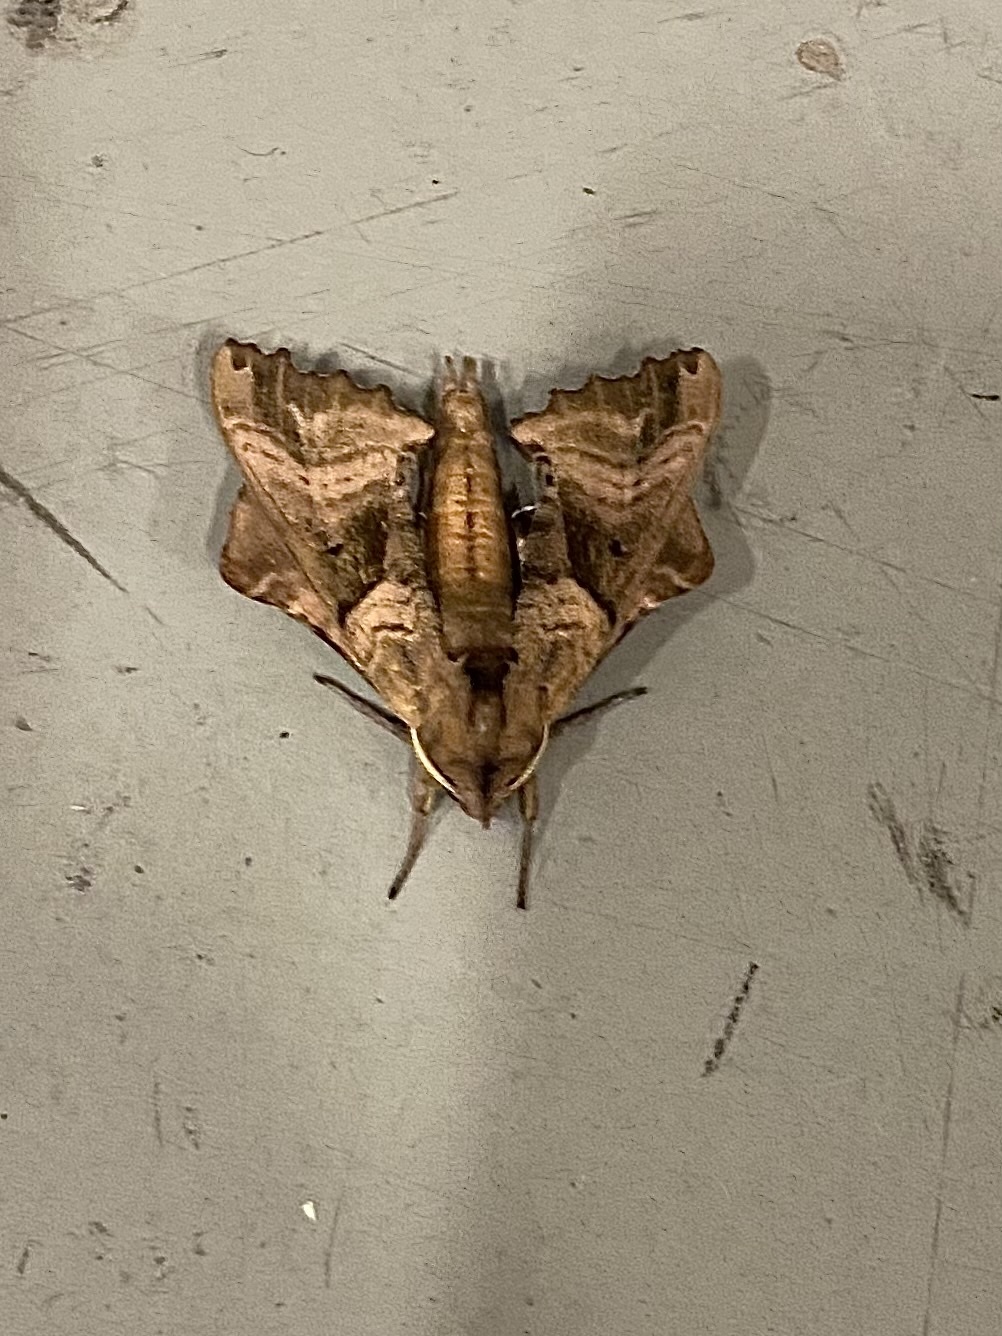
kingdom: Animalia
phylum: Arthropoda
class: Insecta
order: Lepidoptera
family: Sphingidae
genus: Paonias
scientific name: Paonias excaecata
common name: Blind-eyed sphinx
